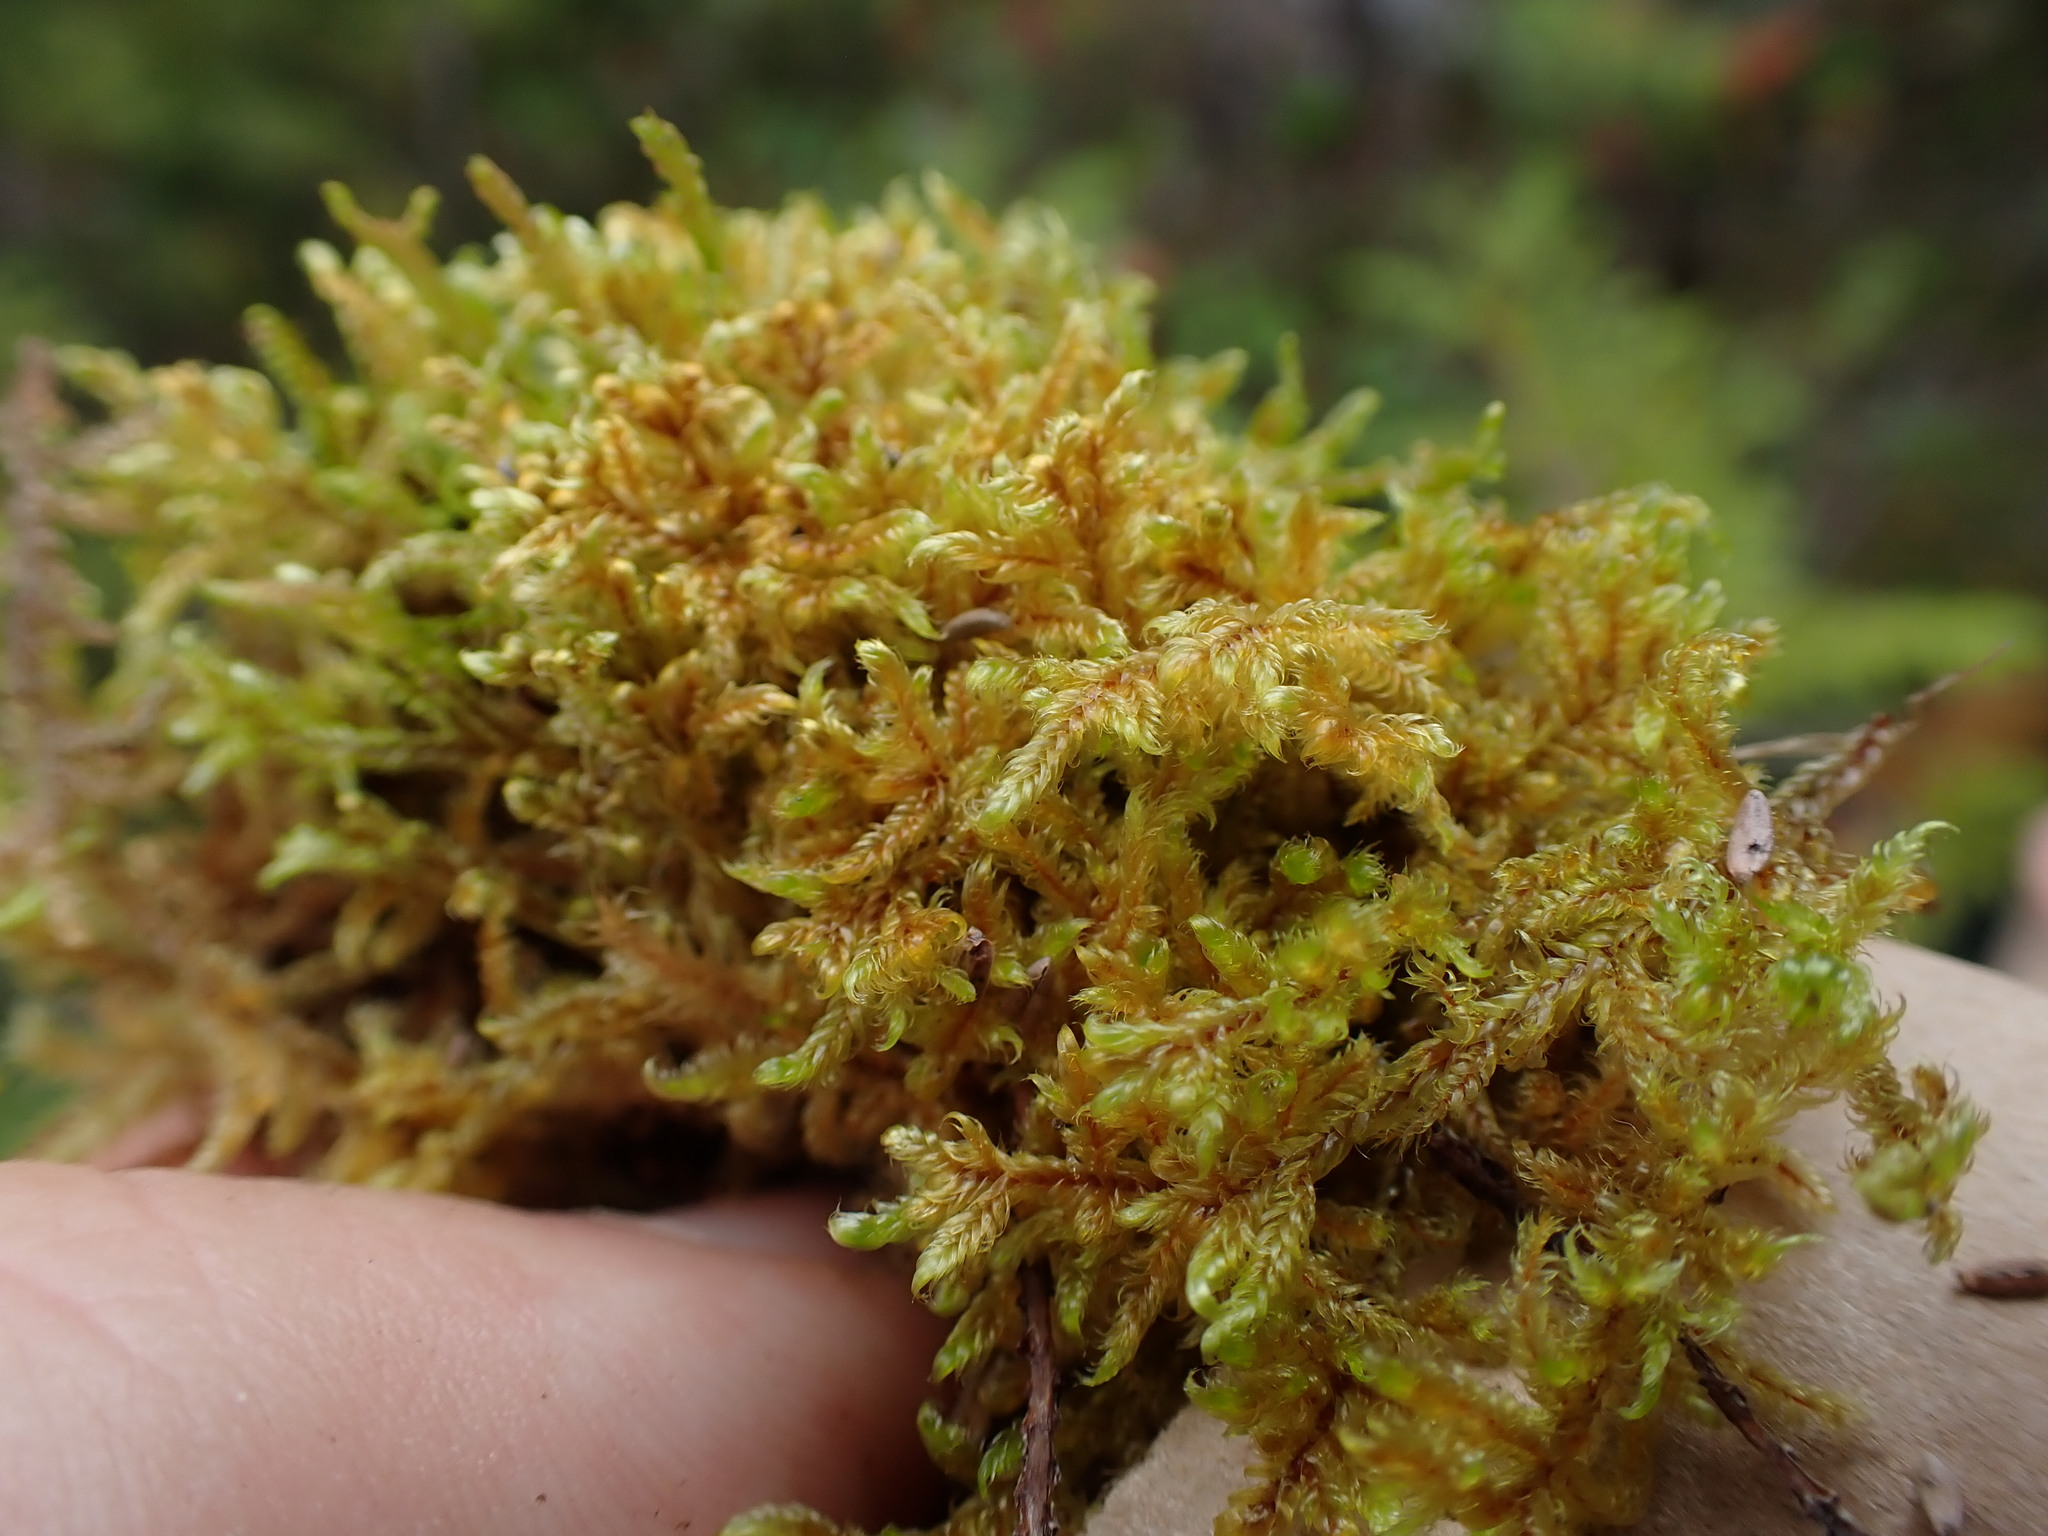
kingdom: Plantae
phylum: Bryophyta
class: Bryopsida
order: Hypnales
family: Pylaisiadelphaceae
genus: Brotherella
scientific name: Brotherella canadensis
